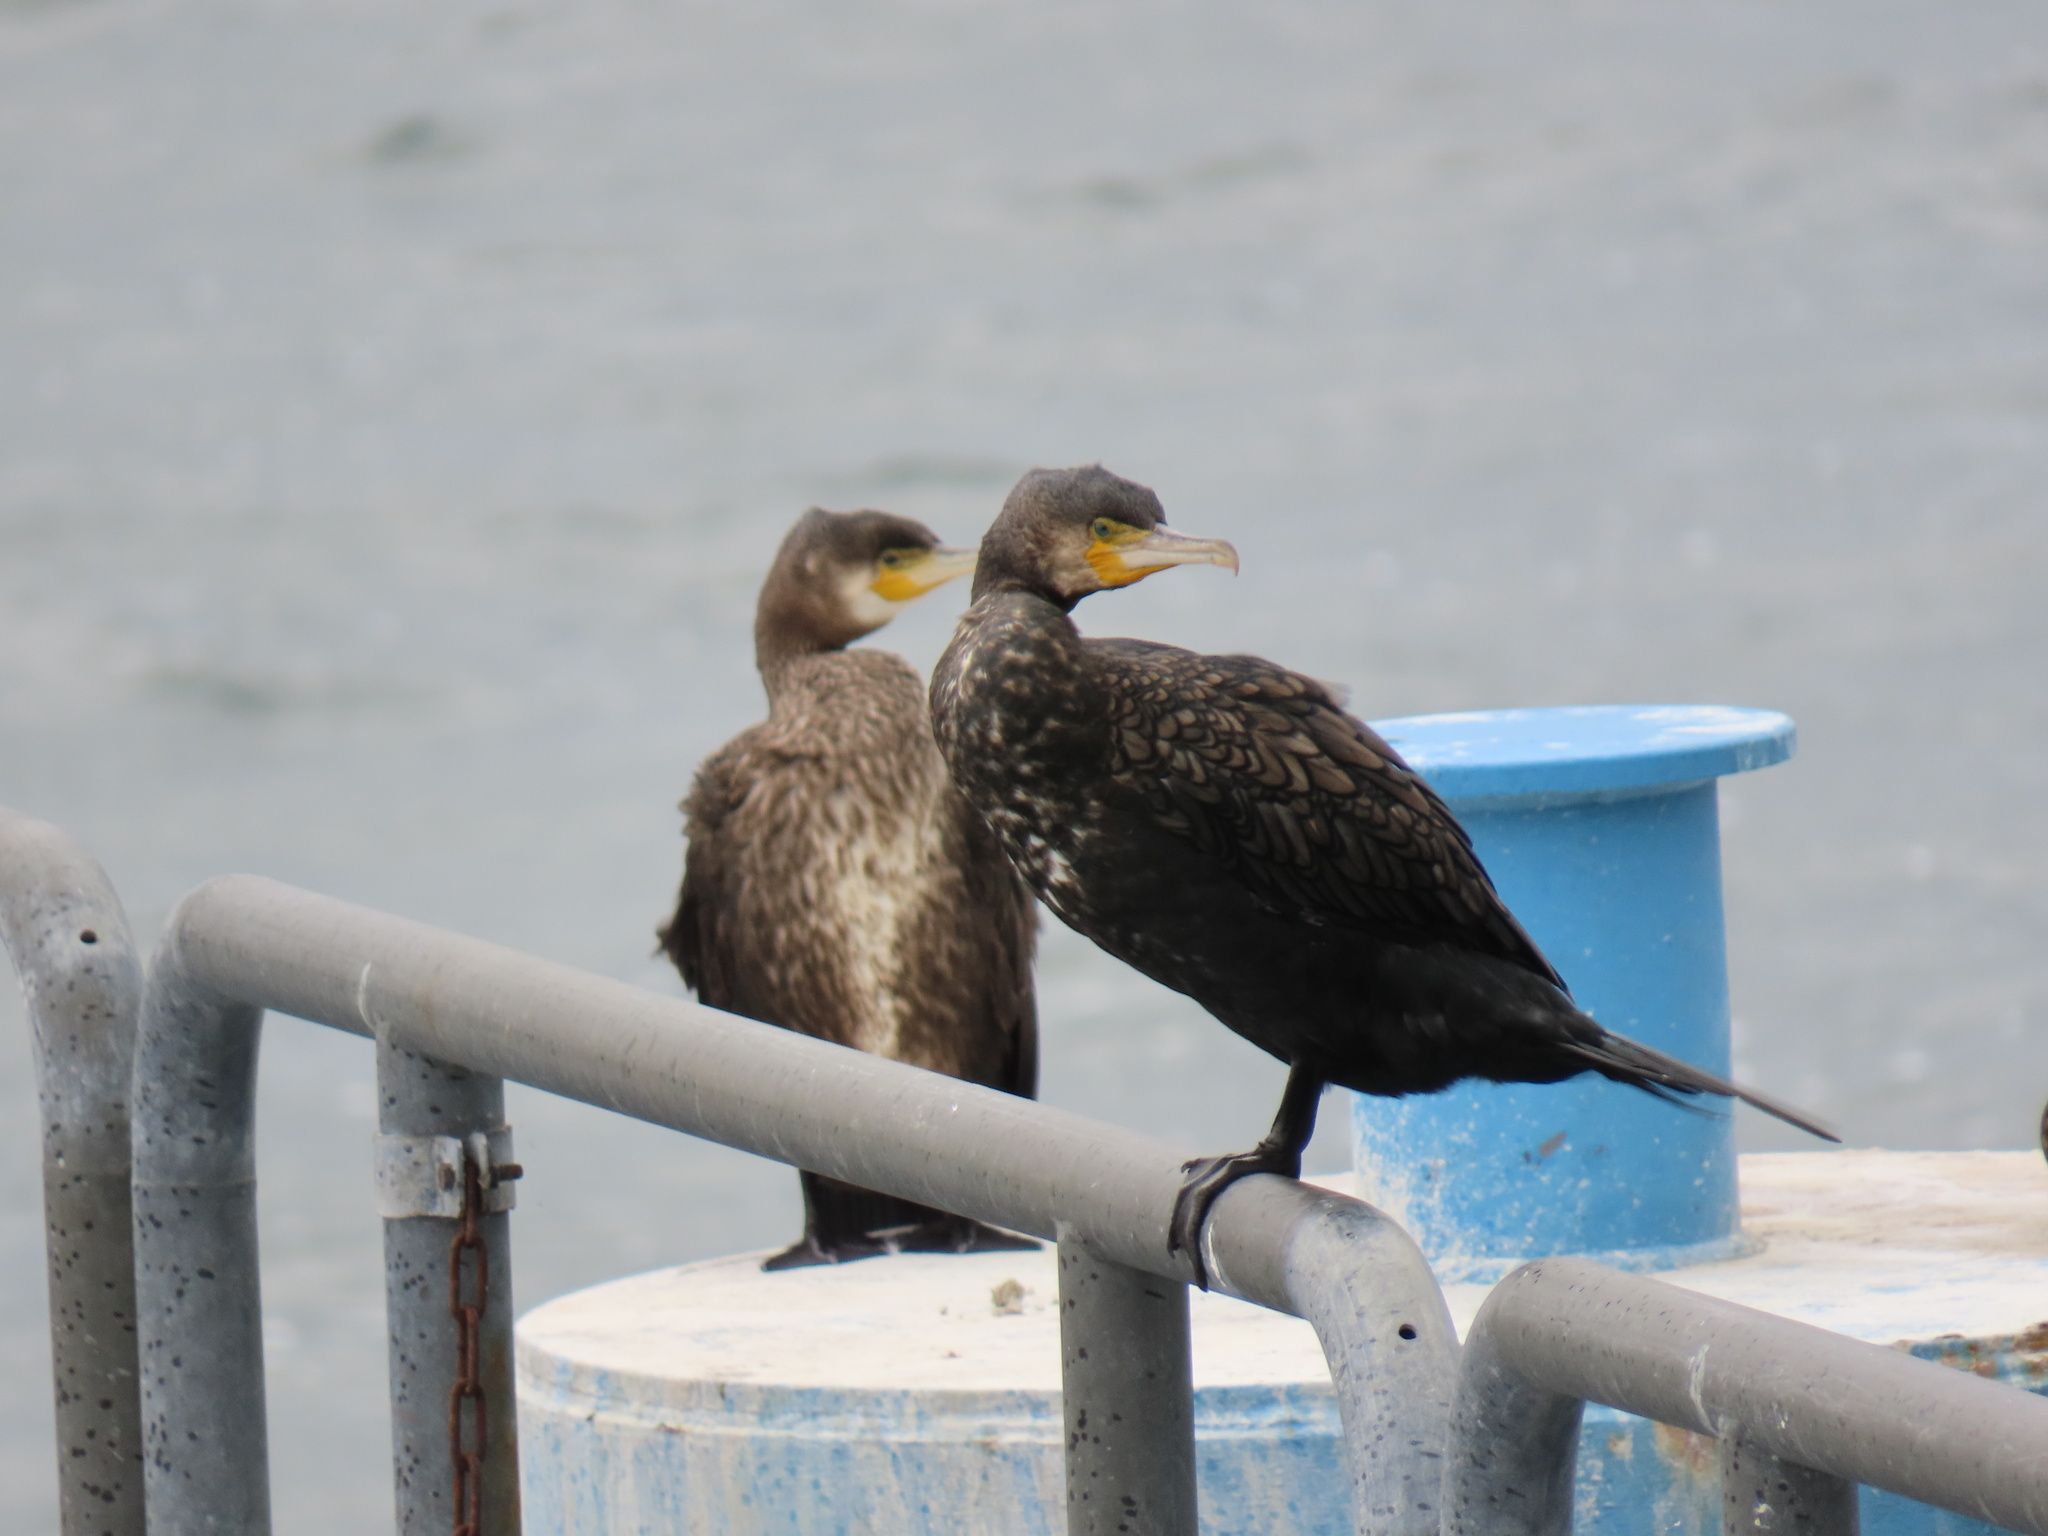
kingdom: Animalia
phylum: Chordata
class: Aves
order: Suliformes
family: Phalacrocoracidae
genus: Phalacrocorax
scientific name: Phalacrocorax carbo
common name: Great cormorant
